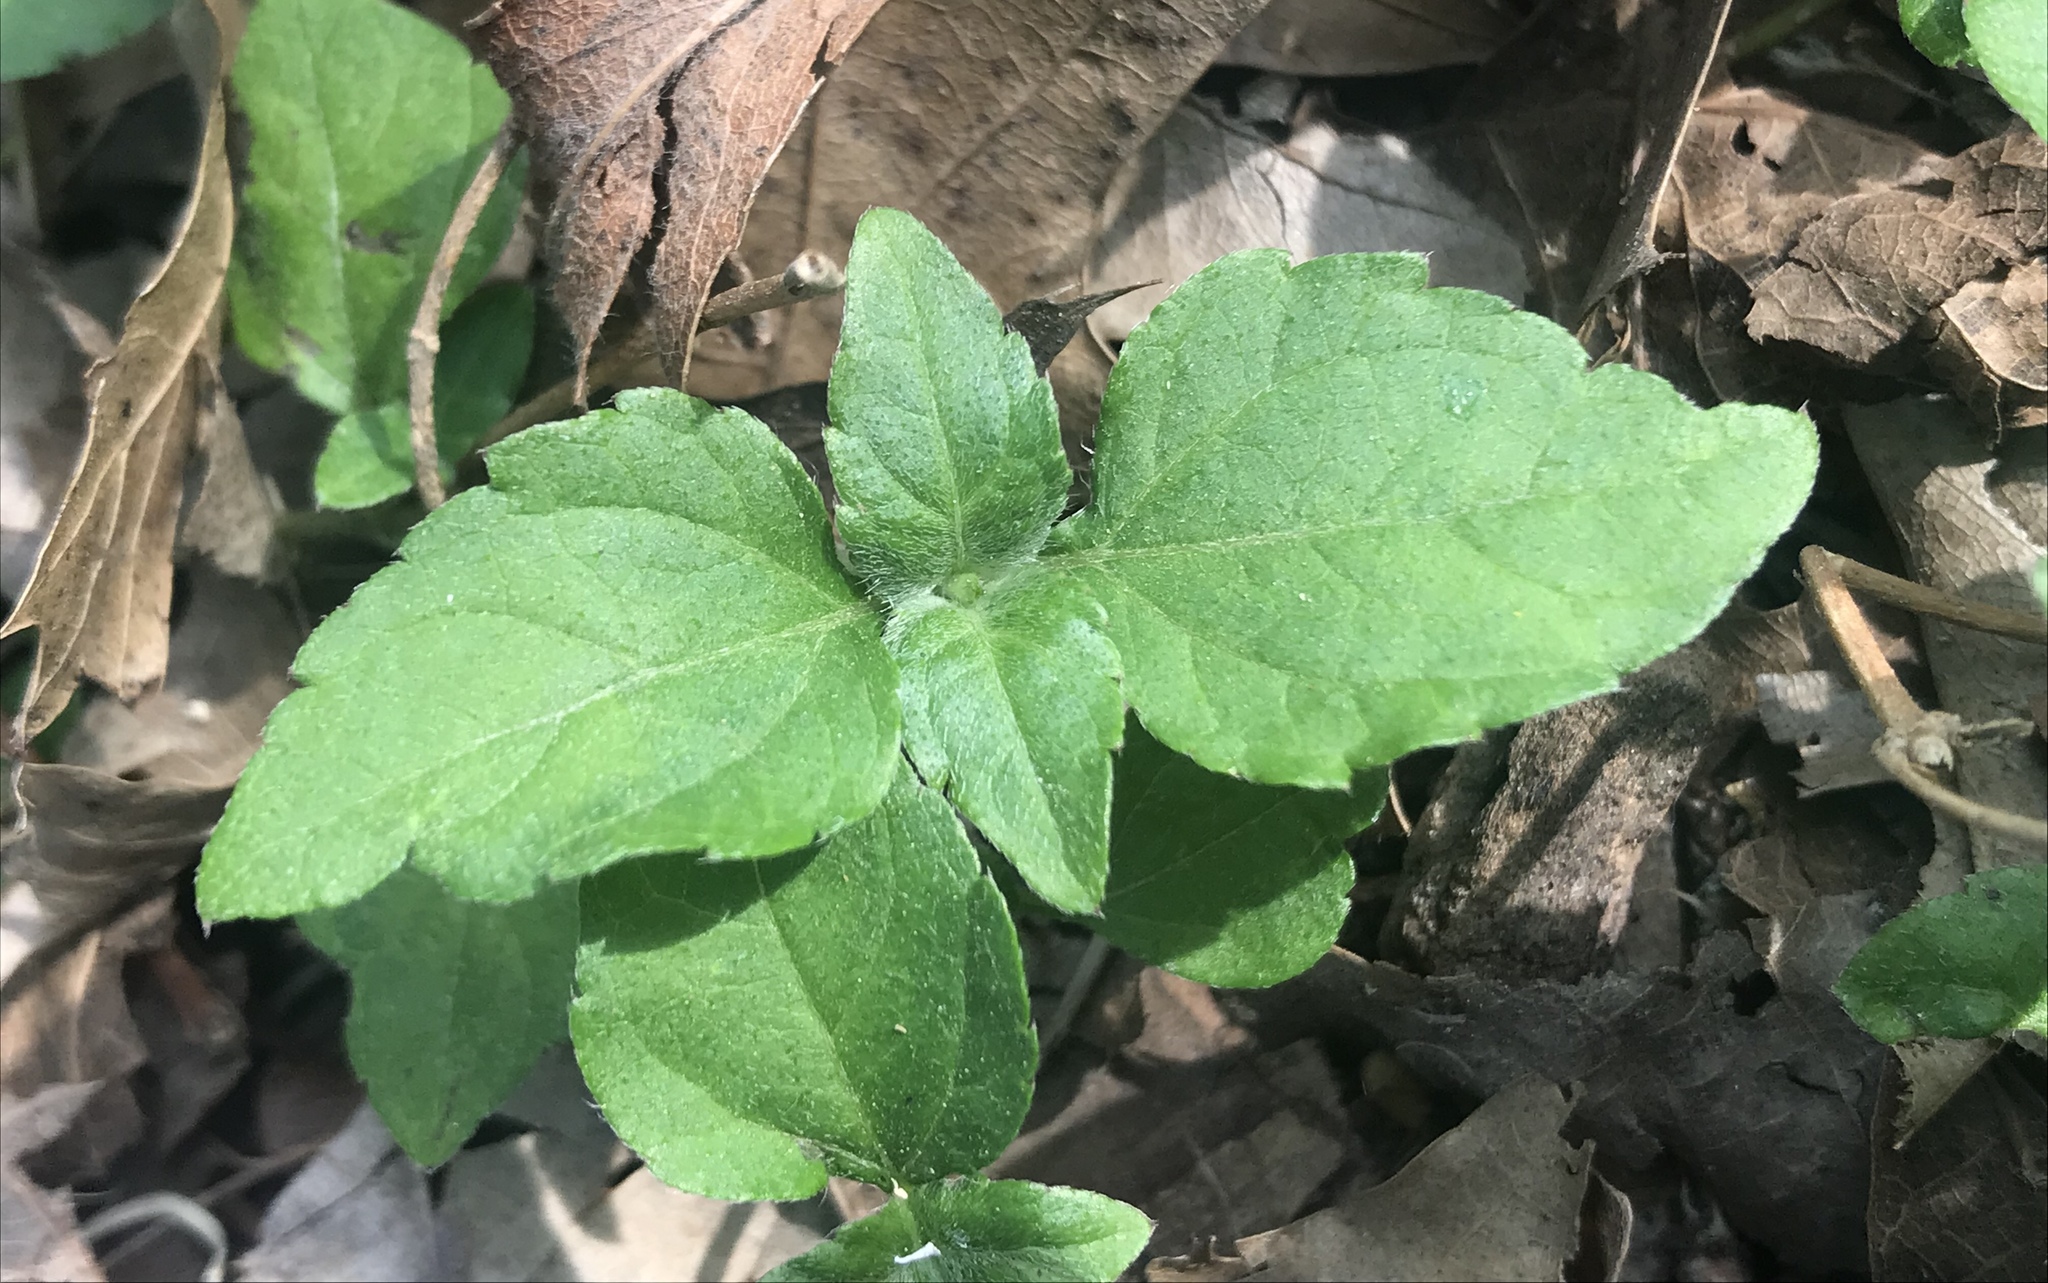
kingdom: Plantae
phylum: Tracheophyta
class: Magnoliopsida
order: Asterales
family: Asteraceae
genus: Calyptocarpus
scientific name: Calyptocarpus vialis
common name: Straggler daisy
